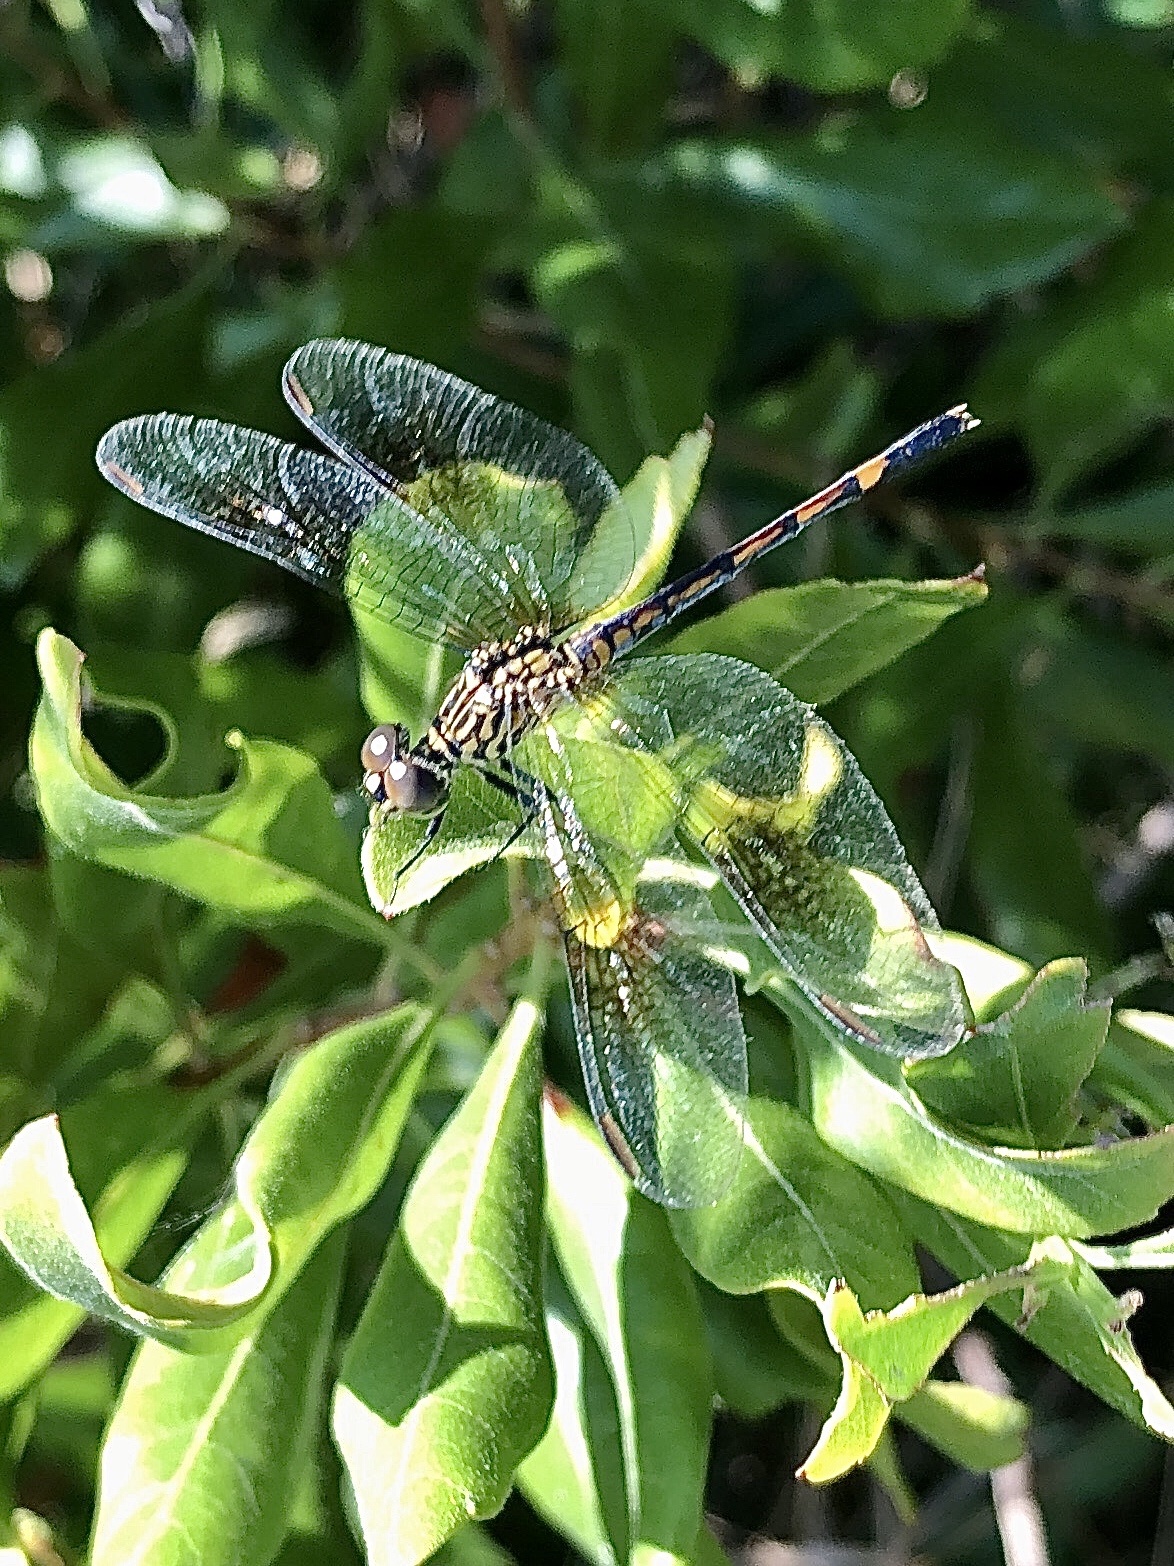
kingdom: Animalia
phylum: Arthropoda
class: Insecta
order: Odonata
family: Libellulidae
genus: Erythrodiplax
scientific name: Erythrodiplax berenice
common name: Seaside dragonlet
